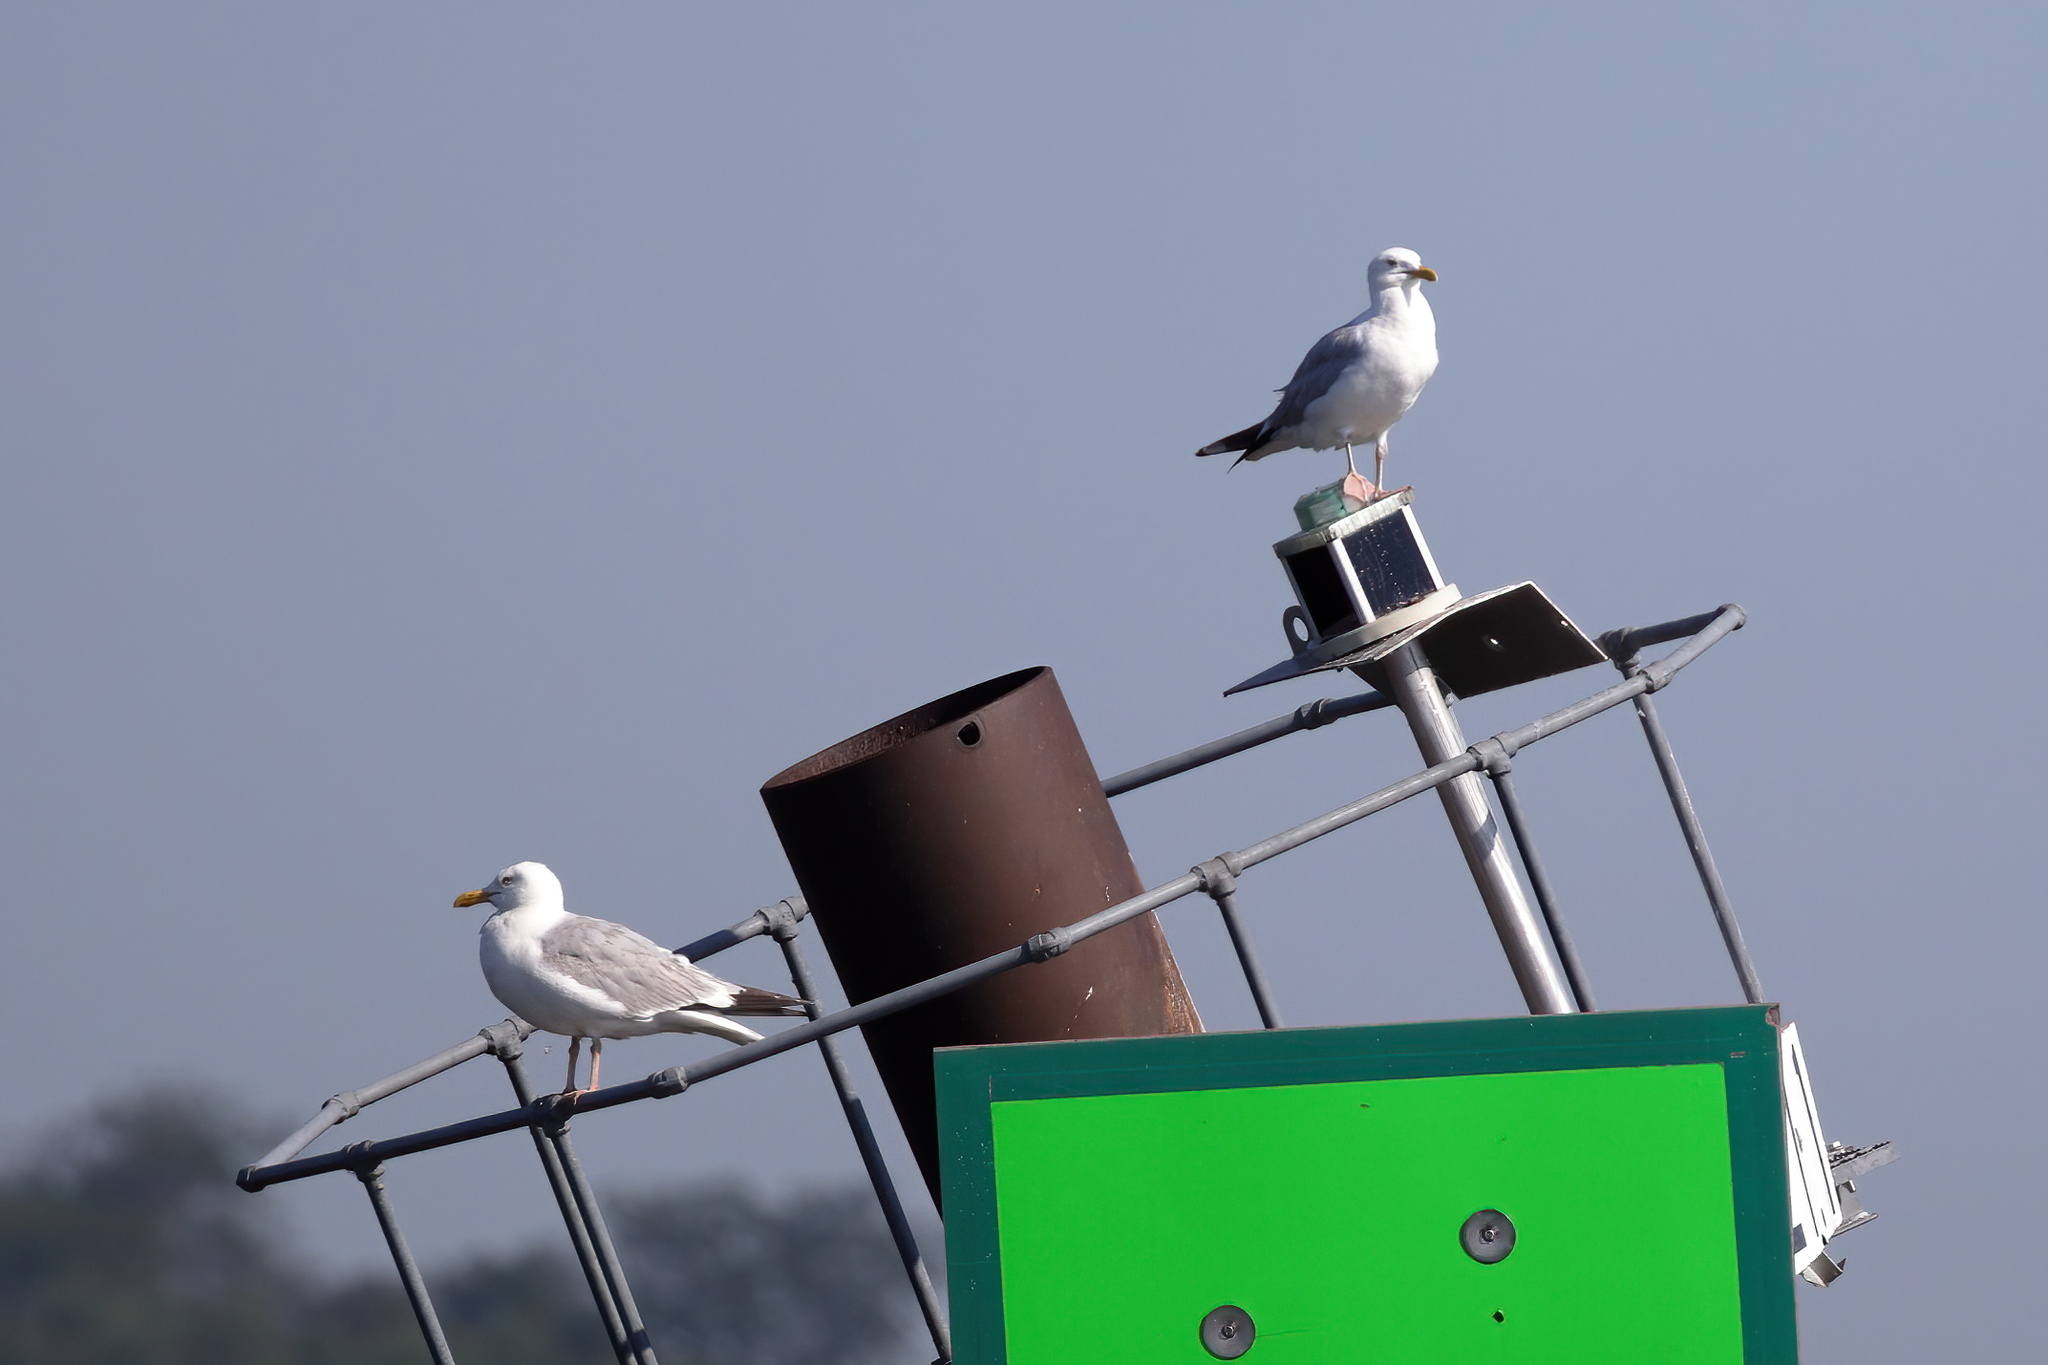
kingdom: Animalia
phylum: Chordata
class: Aves
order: Charadriiformes
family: Laridae
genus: Larus
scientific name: Larus argentatus
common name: Herring gull
